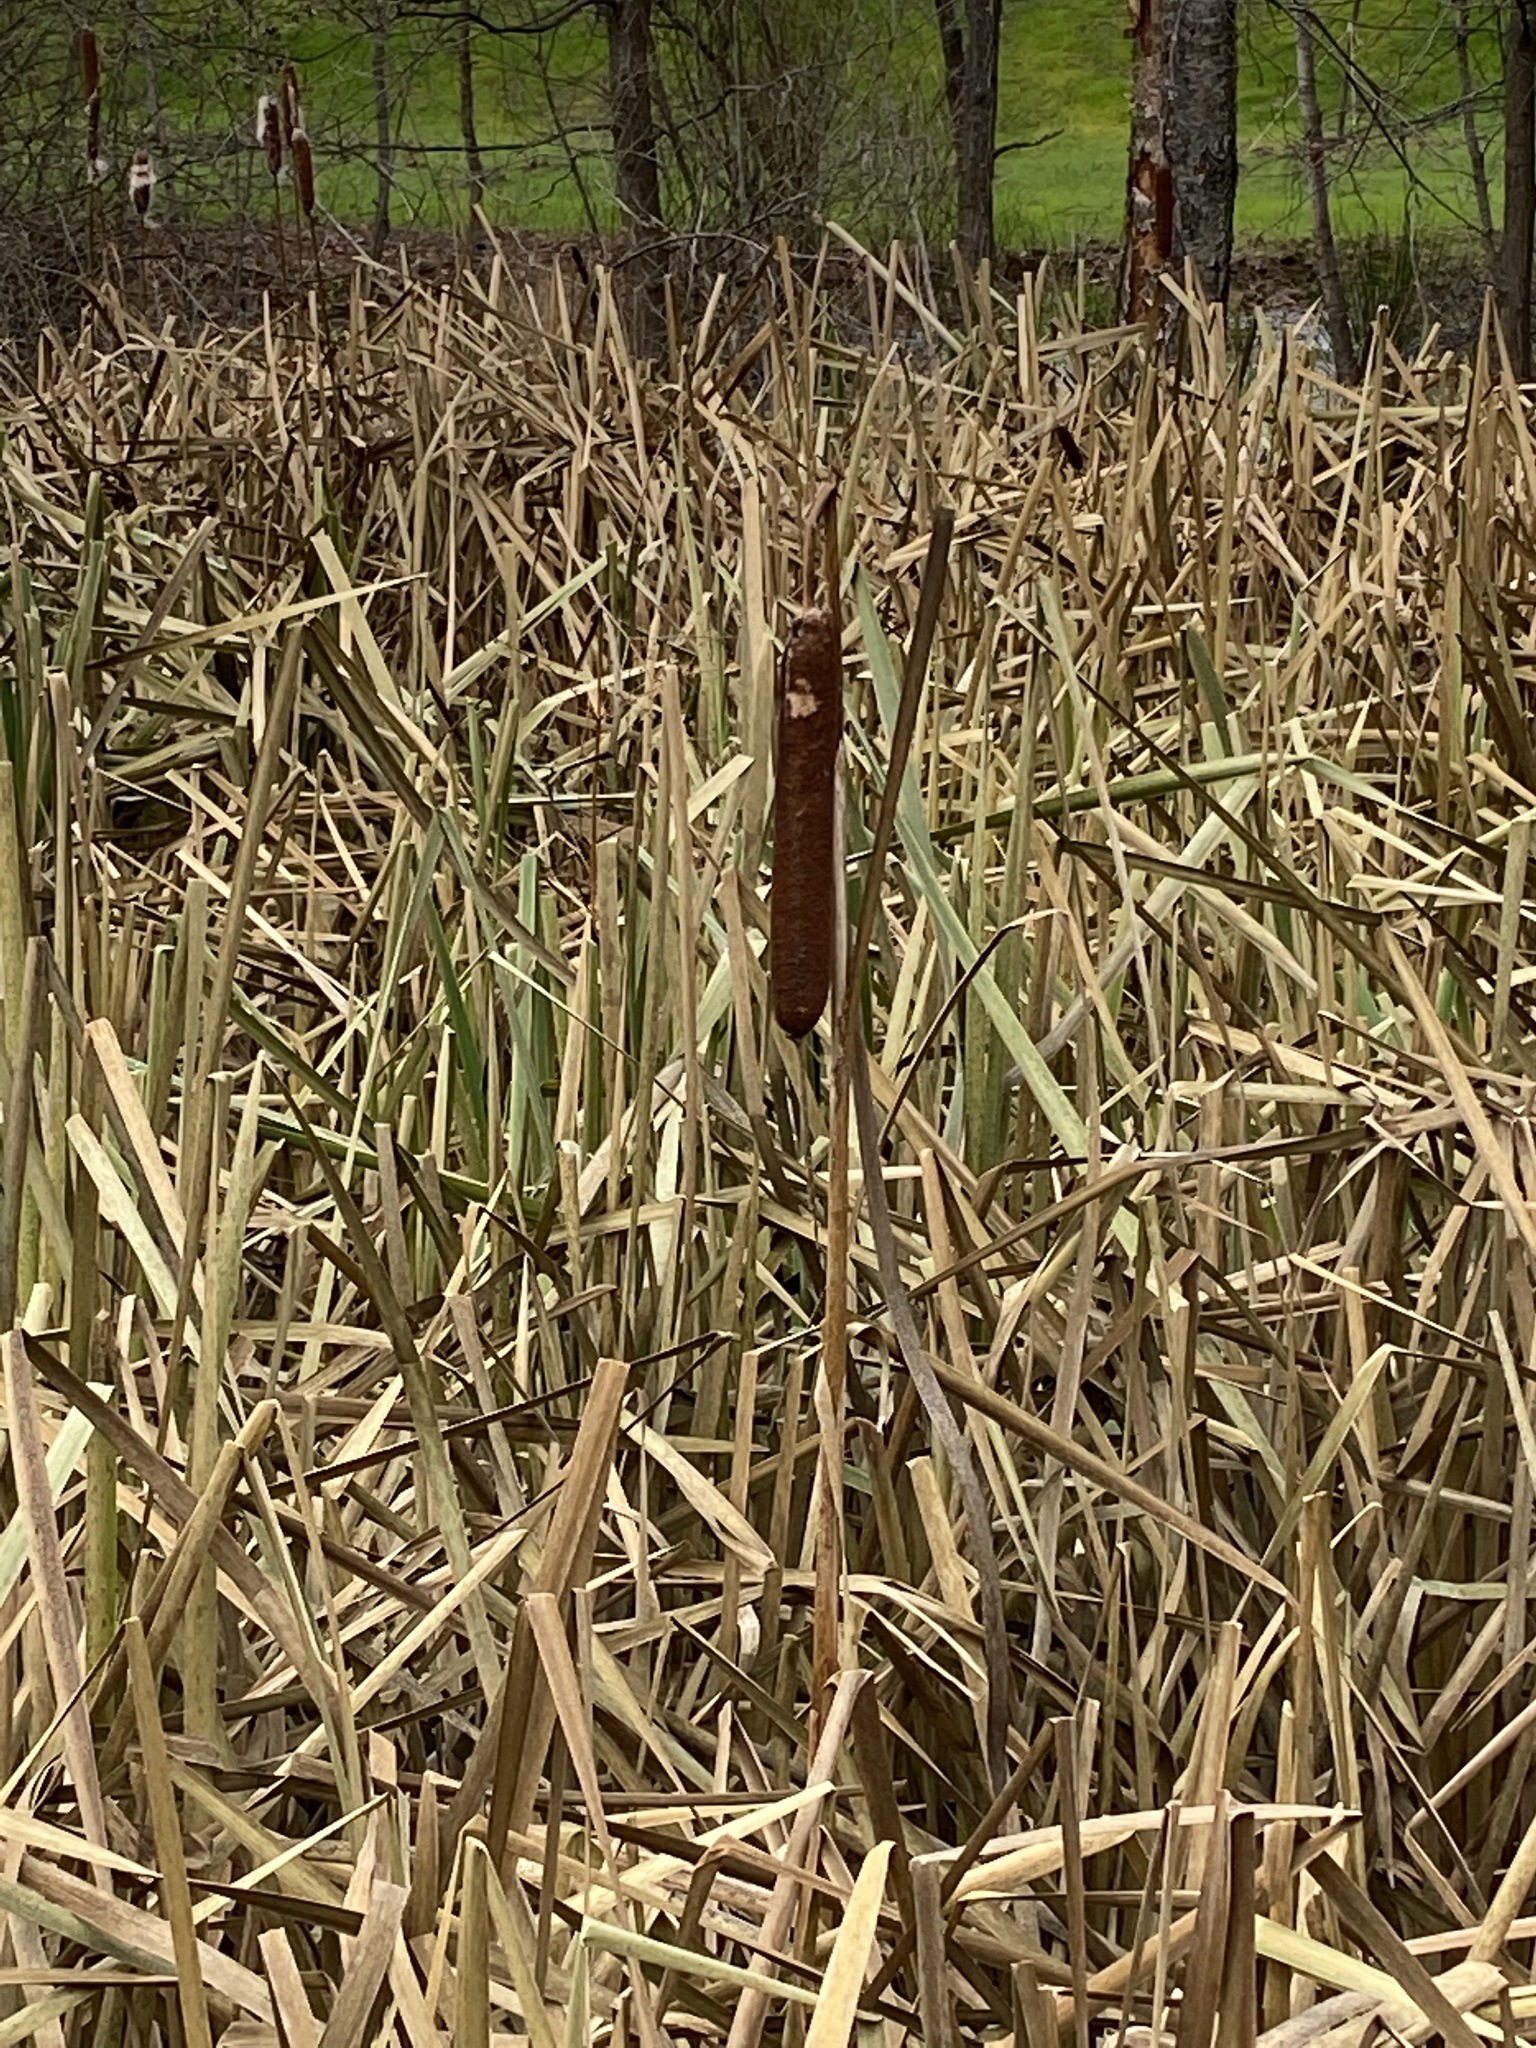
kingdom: Plantae
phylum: Tracheophyta
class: Liliopsida
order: Poales
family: Typhaceae
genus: Typha
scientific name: Typha latifolia
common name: Broadleaf cattail
